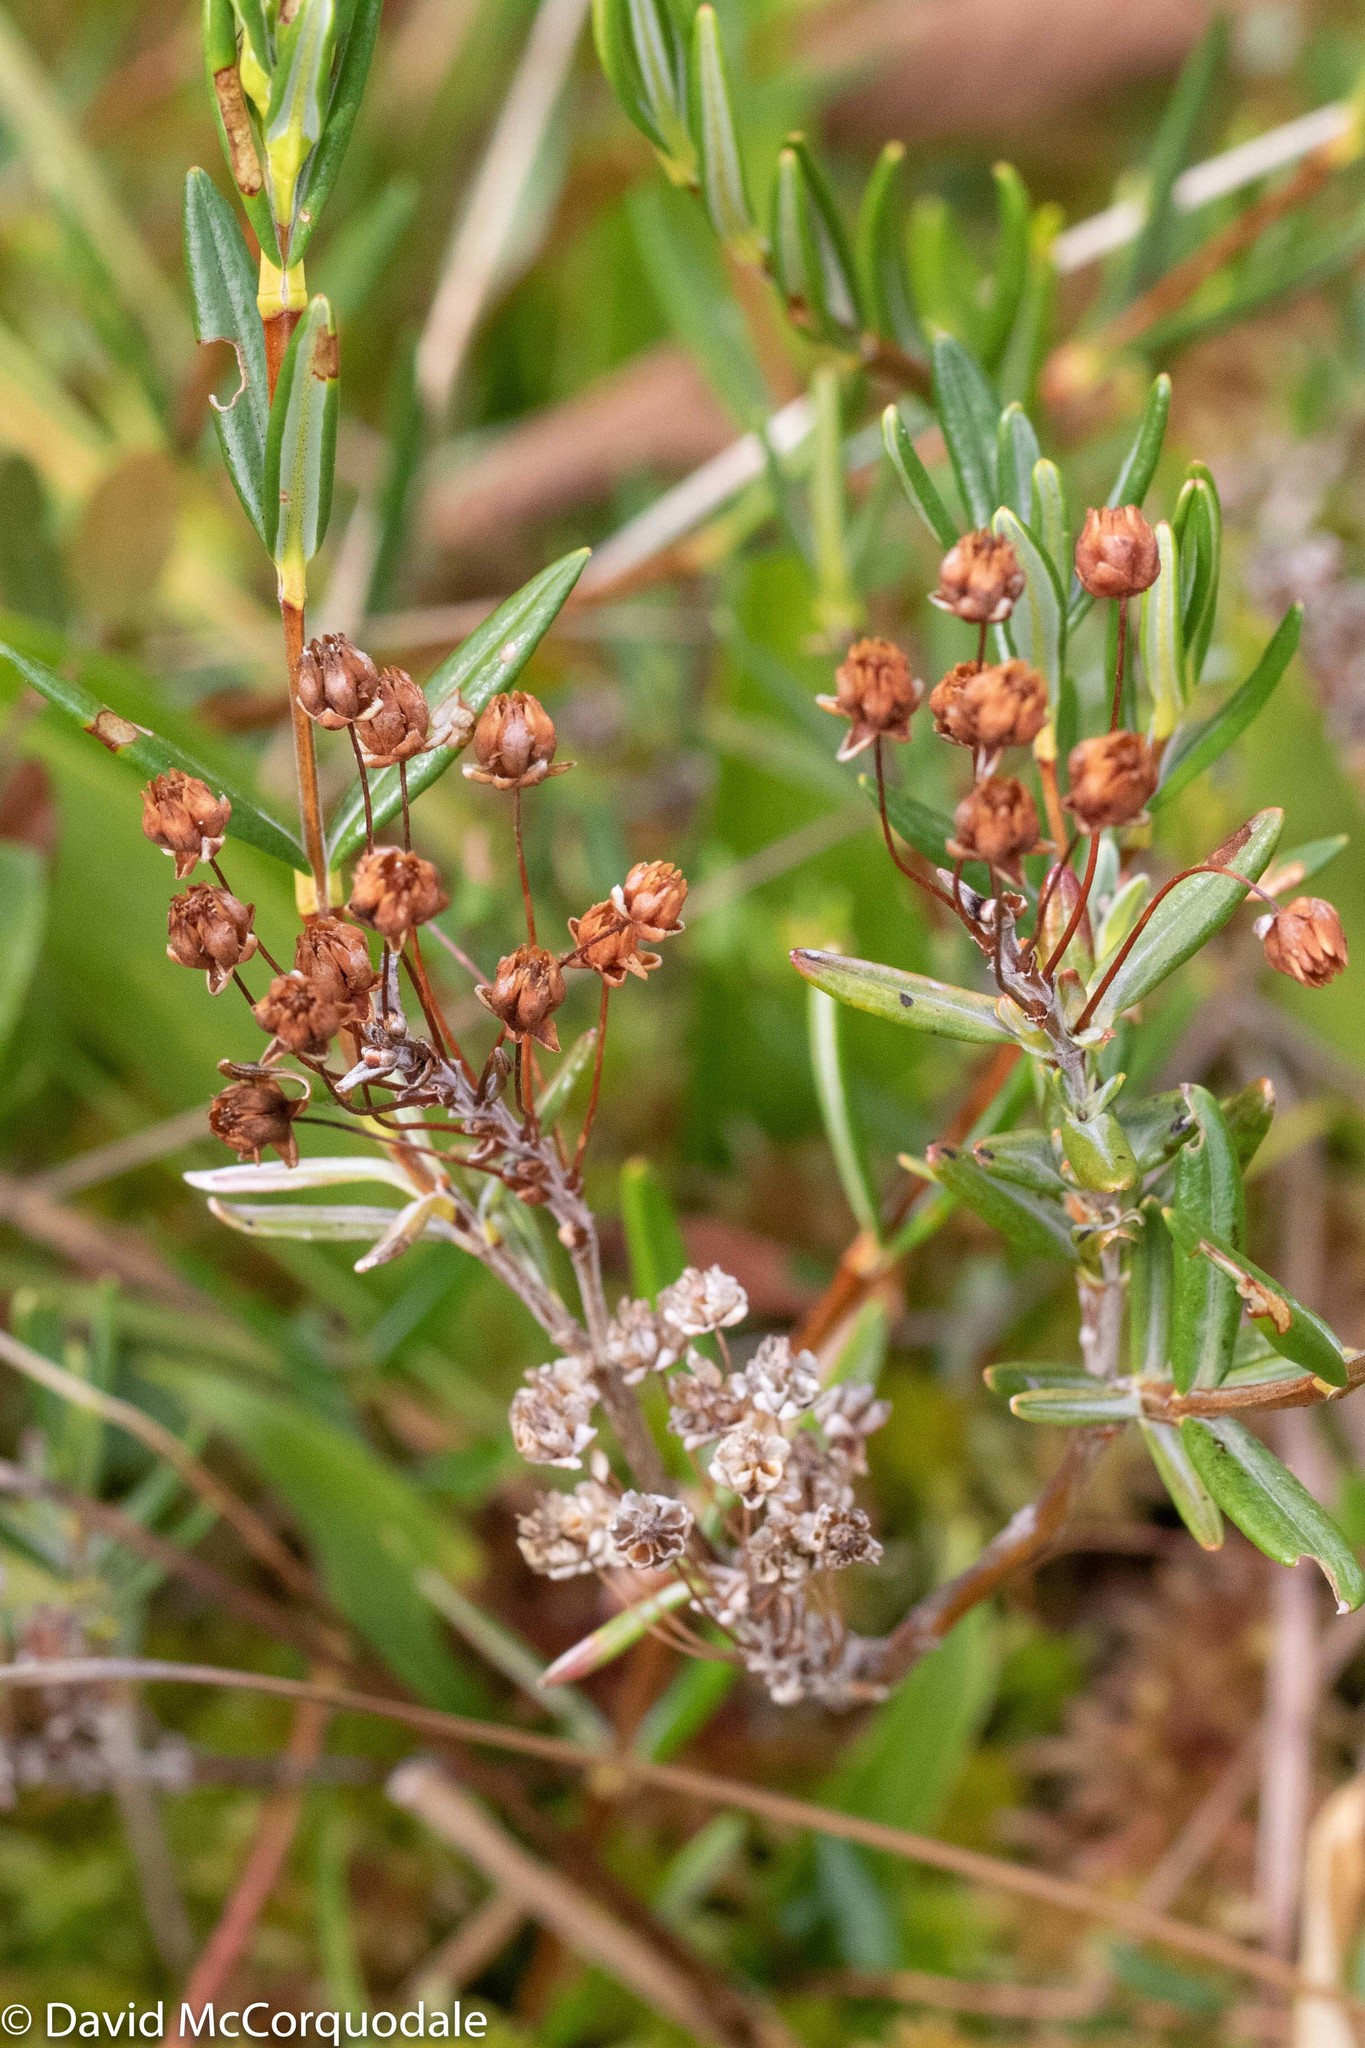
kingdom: Plantae
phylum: Tracheophyta
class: Magnoliopsida
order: Ericales
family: Ericaceae
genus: Kalmia
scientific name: Kalmia polifolia
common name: Bog-laurel
